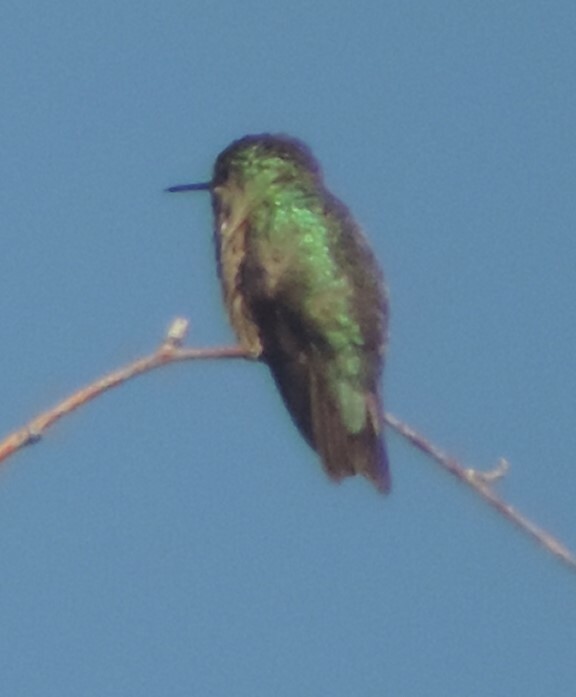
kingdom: Animalia
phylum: Chordata
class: Aves
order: Apodiformes
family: Trochilidae
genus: Selasphorus
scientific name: Selasphorus calliope
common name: Calliope hummingbird
